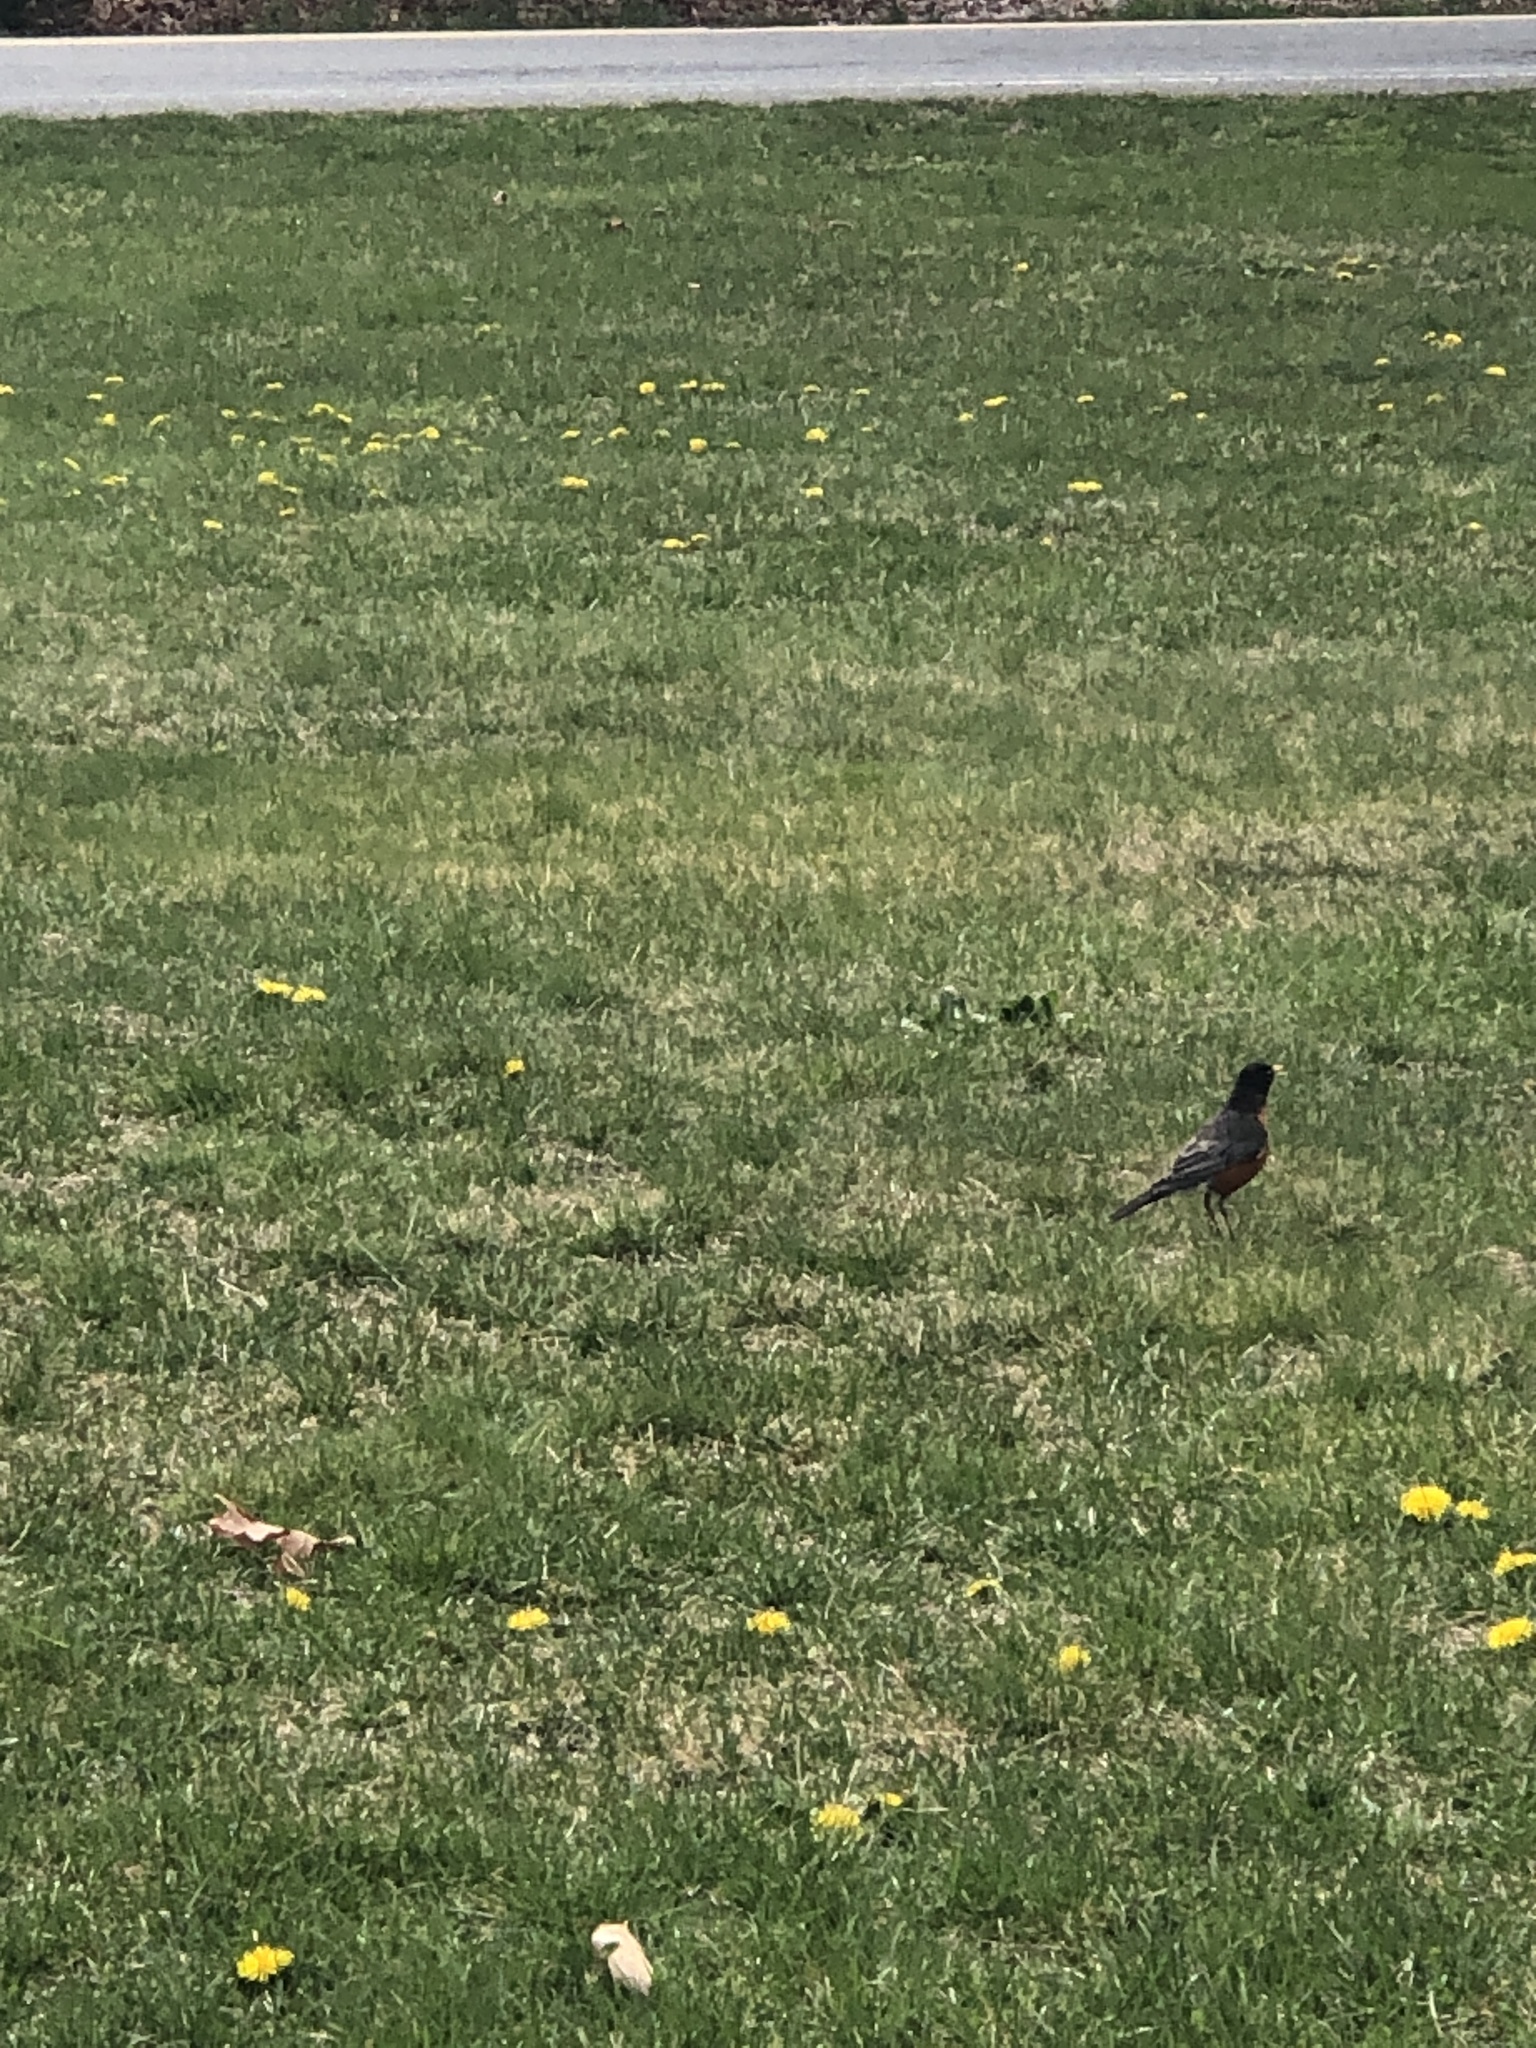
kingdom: Animalia
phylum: Chordata
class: Aves
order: Passeriformes
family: Turdidae
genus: Turdus
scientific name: Turdus migratorius
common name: American robin
